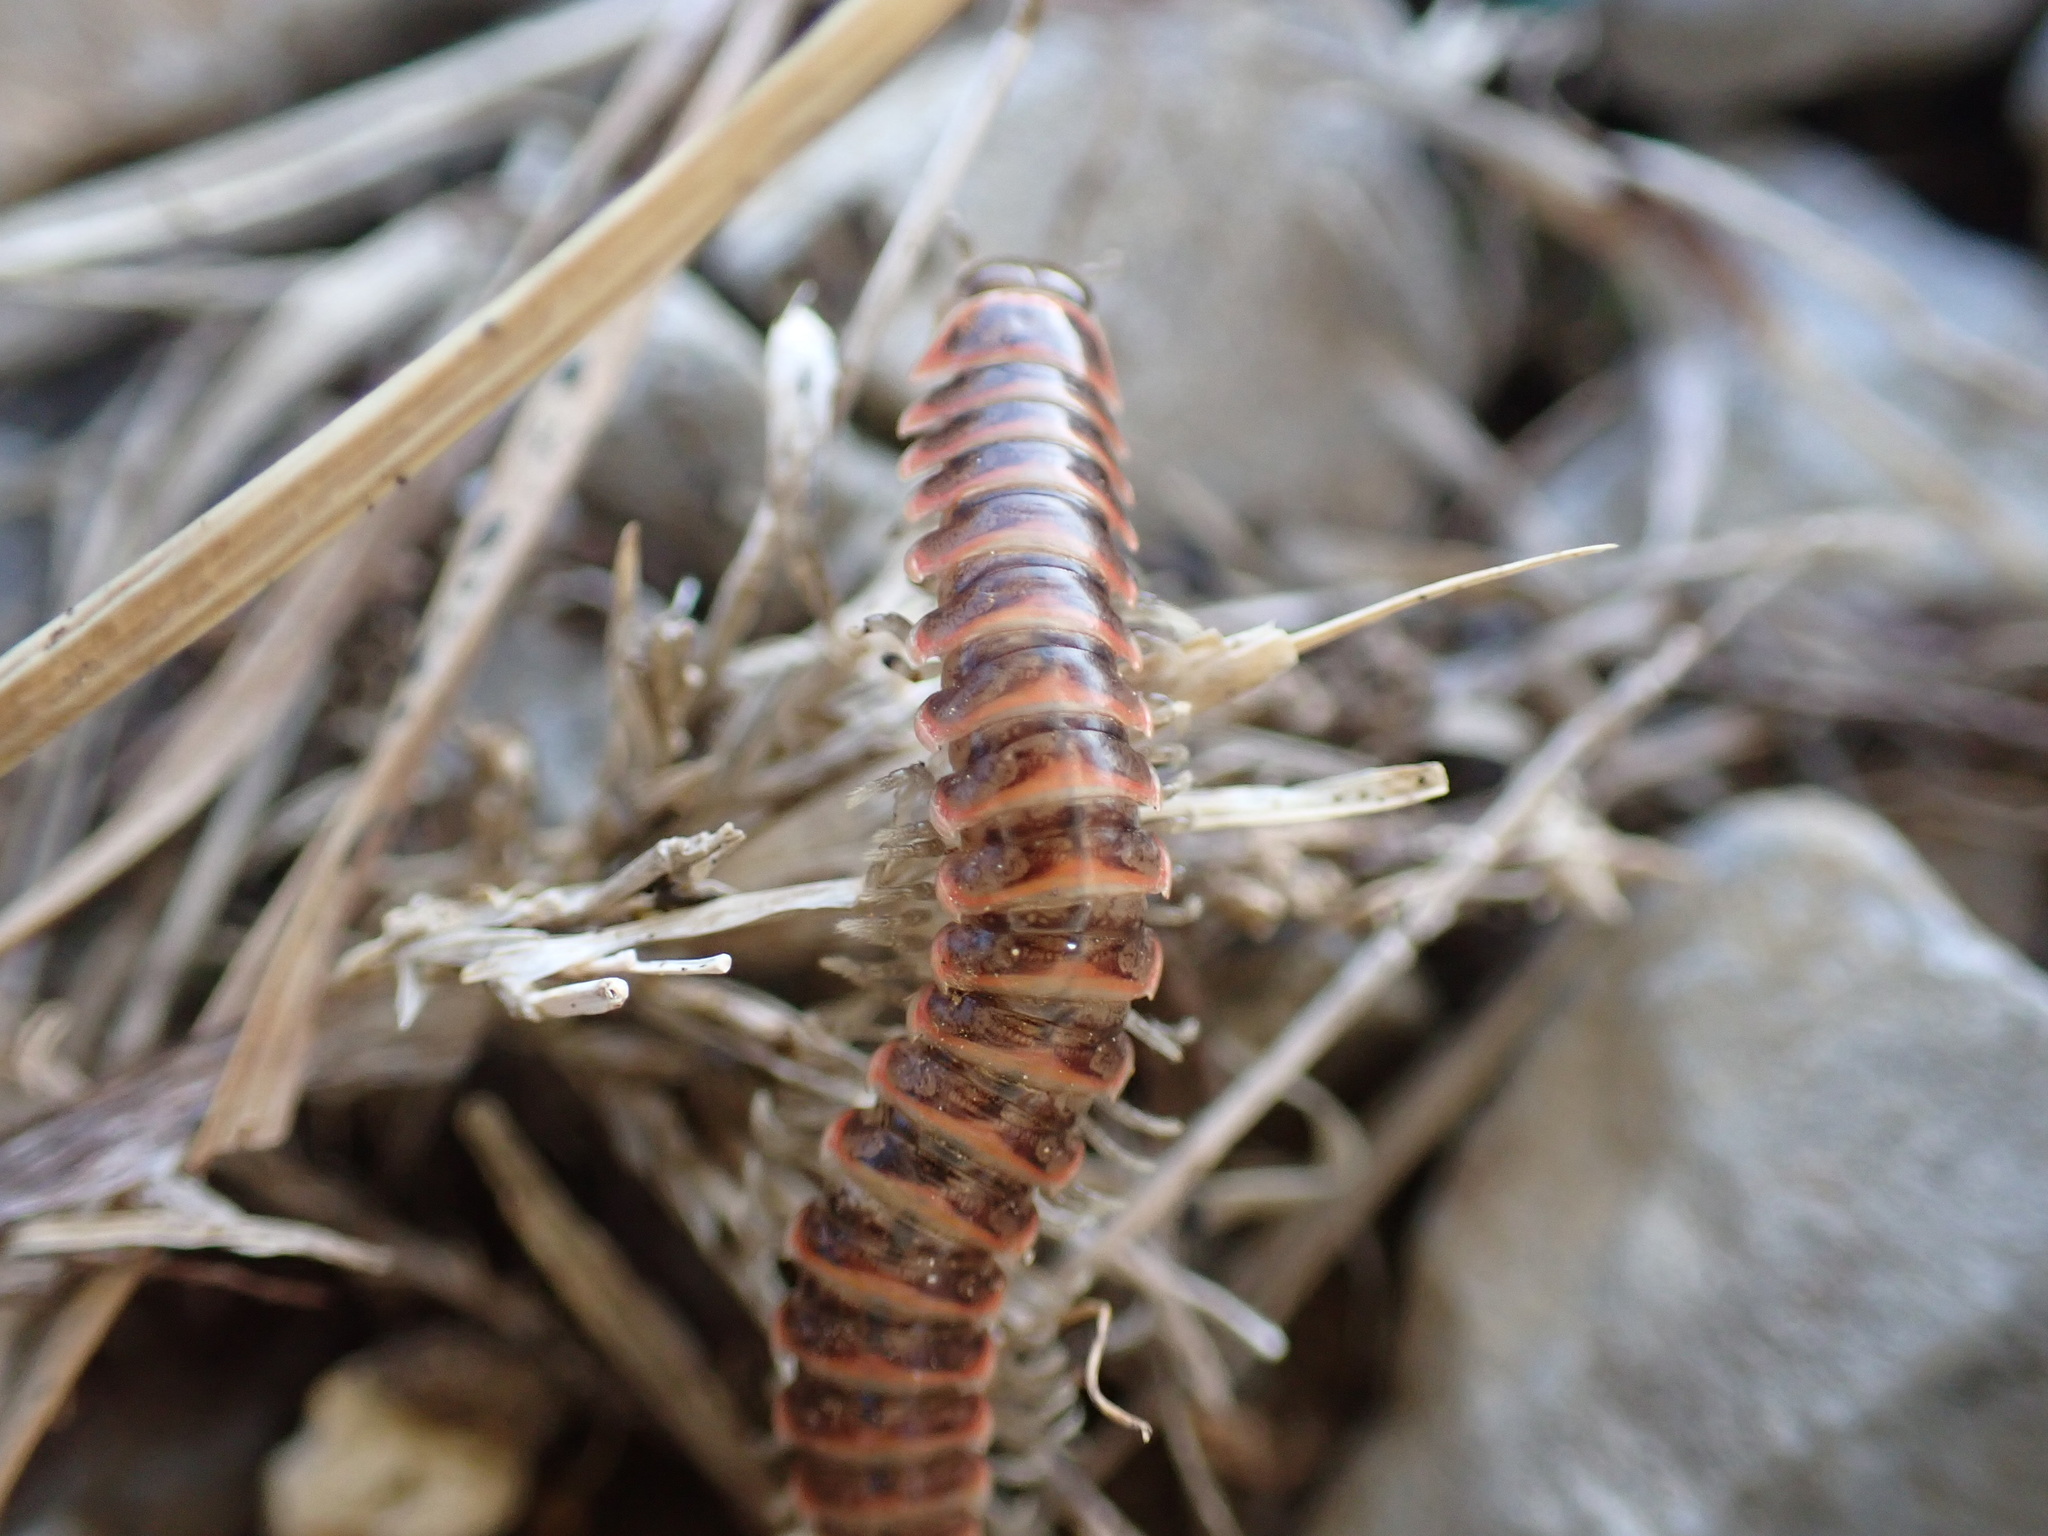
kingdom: Animalia
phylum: Arthropoda
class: Diplopoda
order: Polydesmida
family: Xystodesmidae
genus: Oenomaea
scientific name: Oenomaea pulchella
